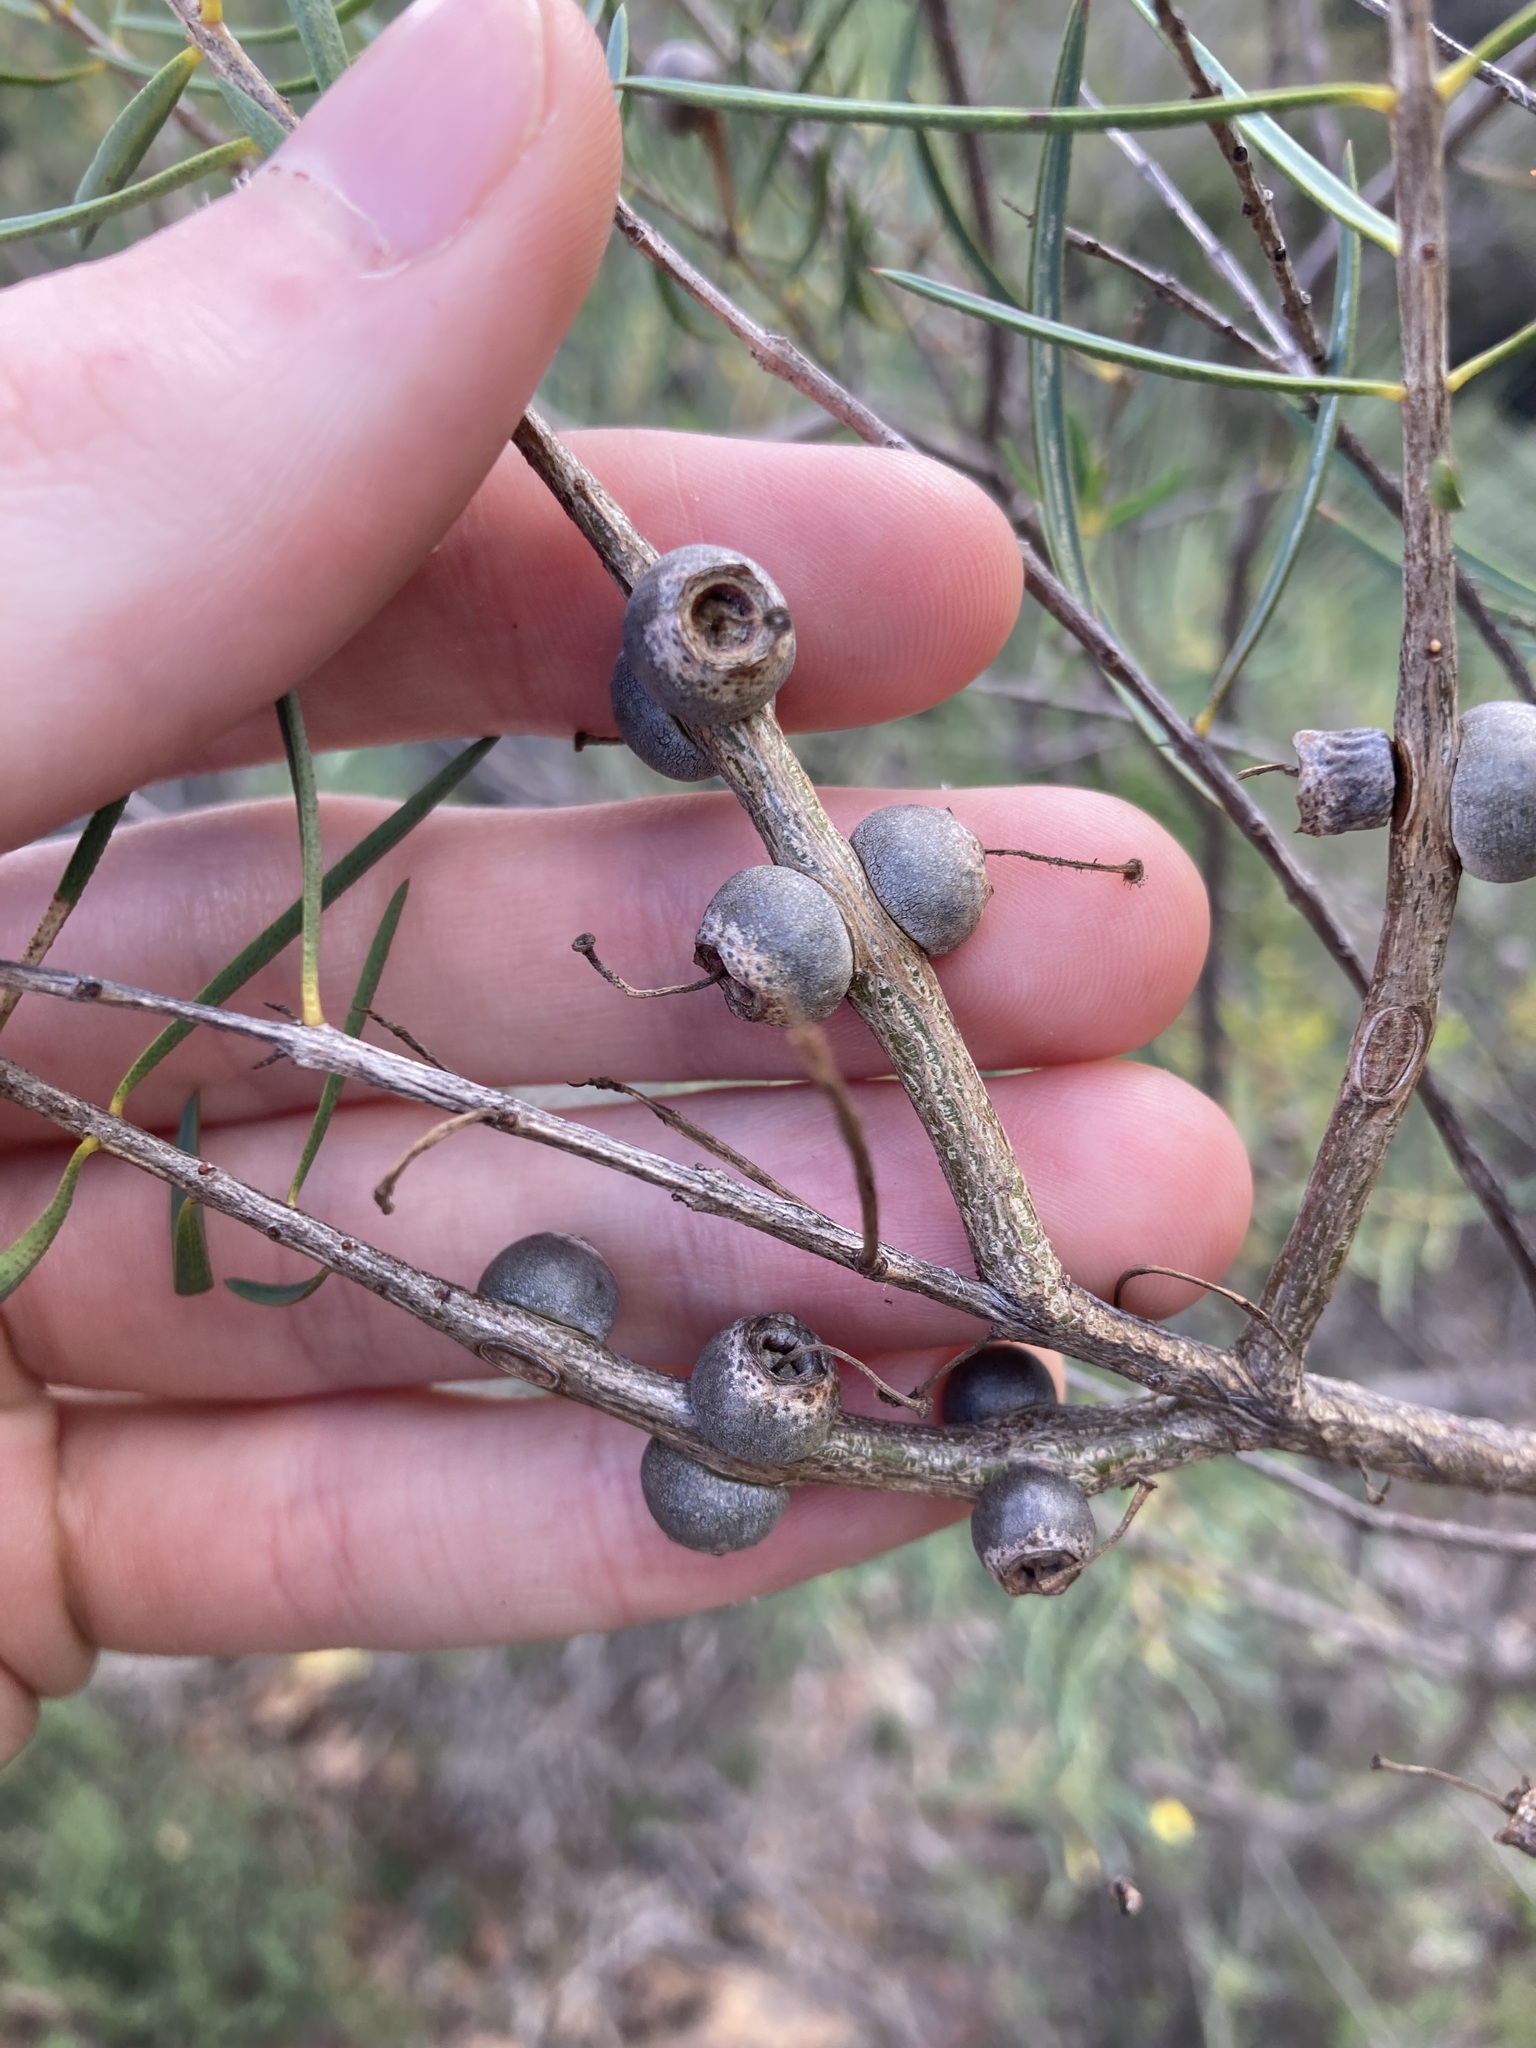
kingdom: Plantae
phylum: Tracheophyta
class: Magnoliopsida
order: Myrtales
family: Myrtaceae
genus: Melaleuca
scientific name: Melaleuca radula
